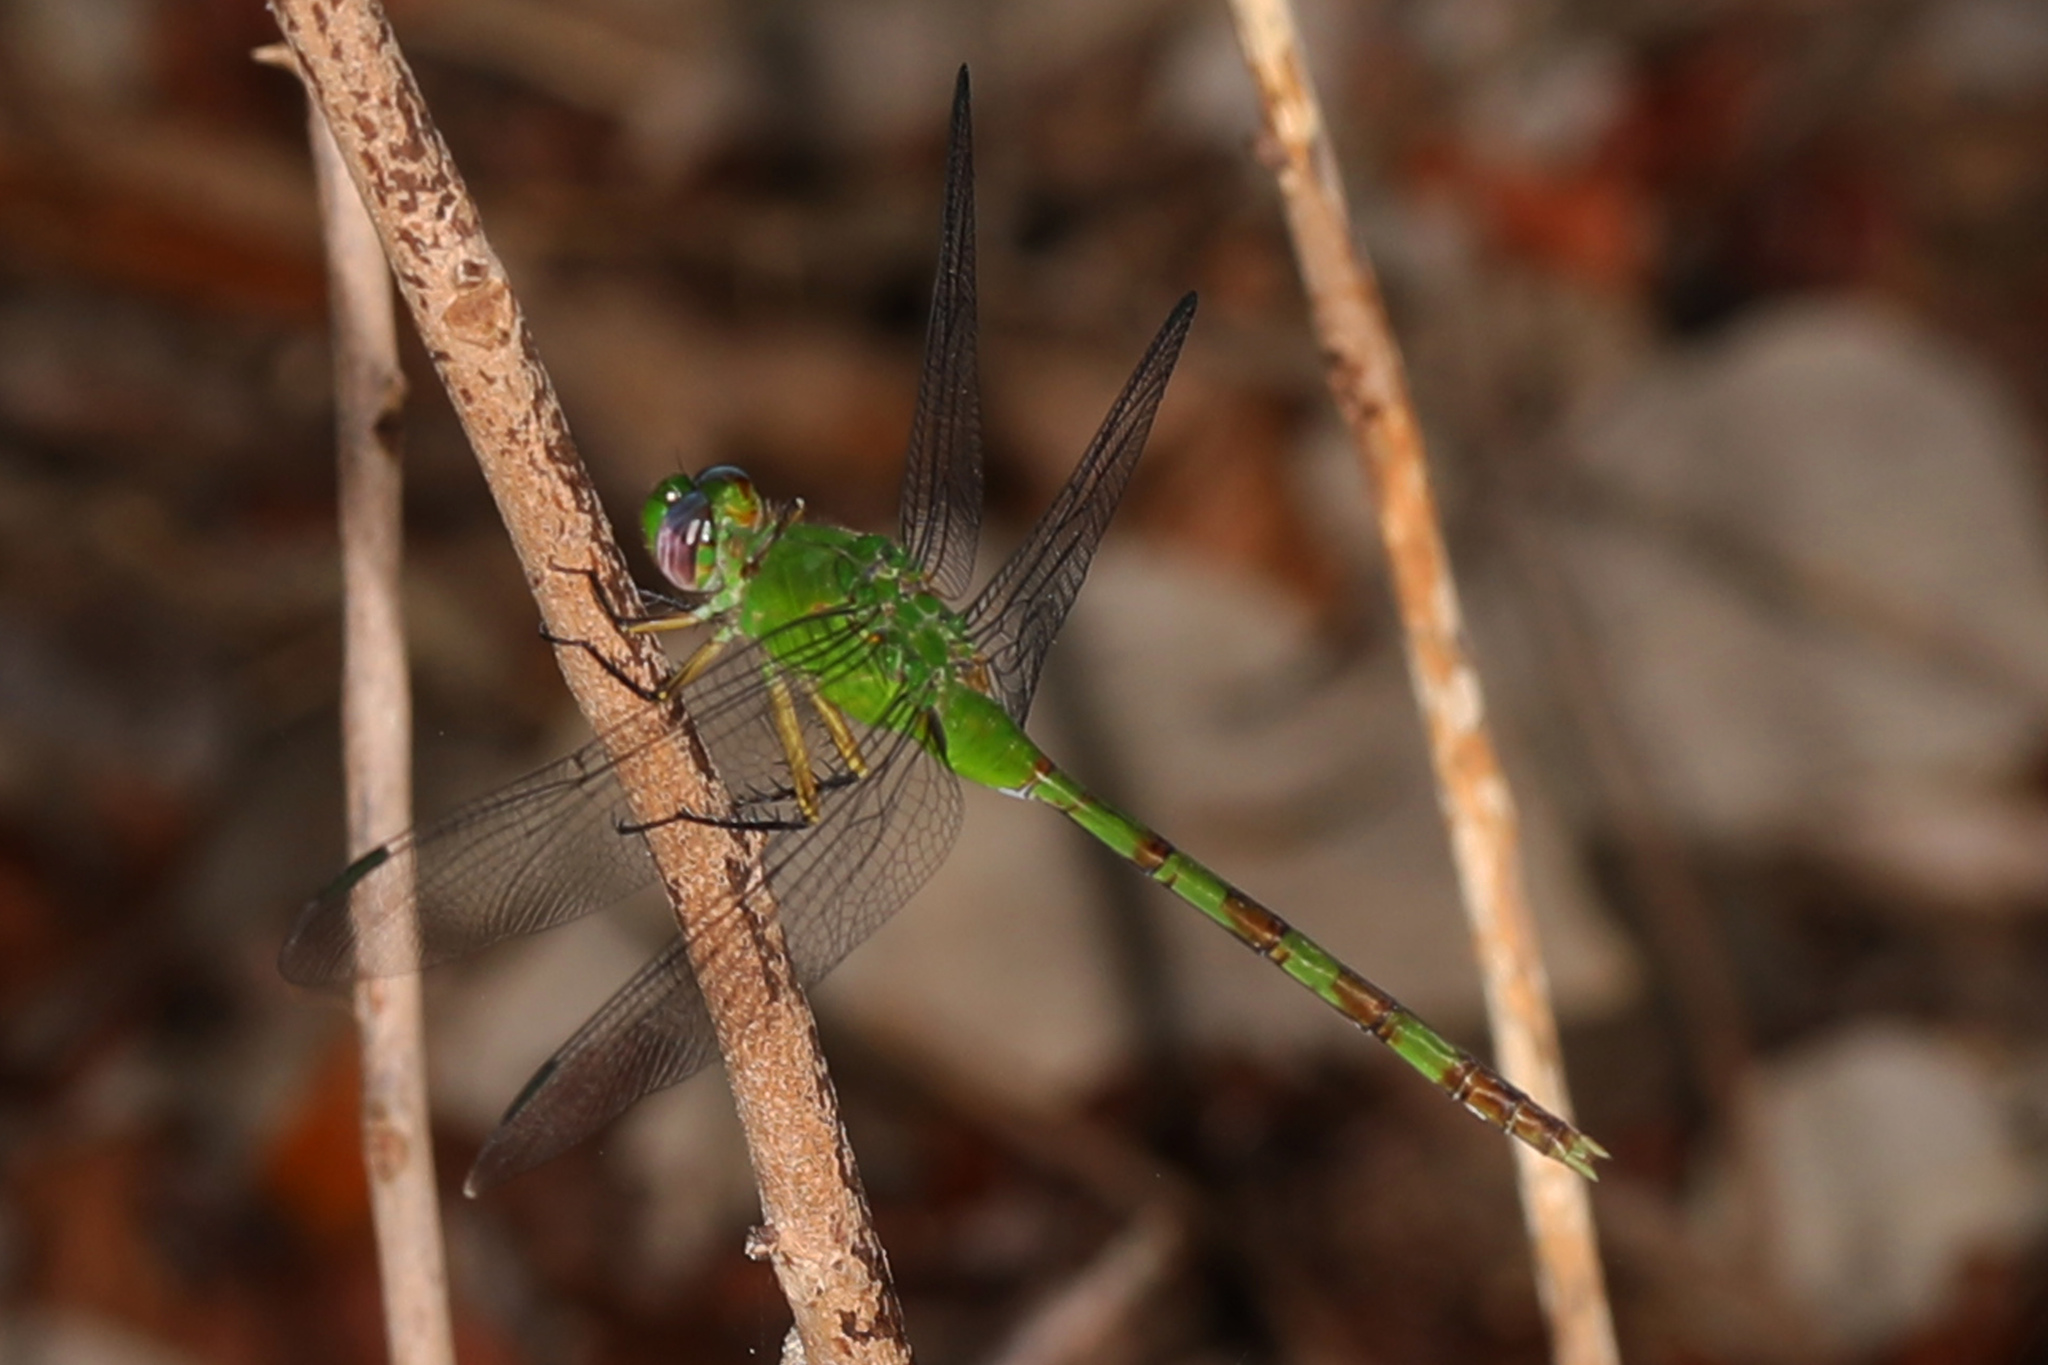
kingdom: Animalia
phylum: Arthropoda
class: Insecta
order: Odonata
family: Libellulidae
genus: Erythemis
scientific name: Erythemis vesiculosa
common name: Great pondhawk
